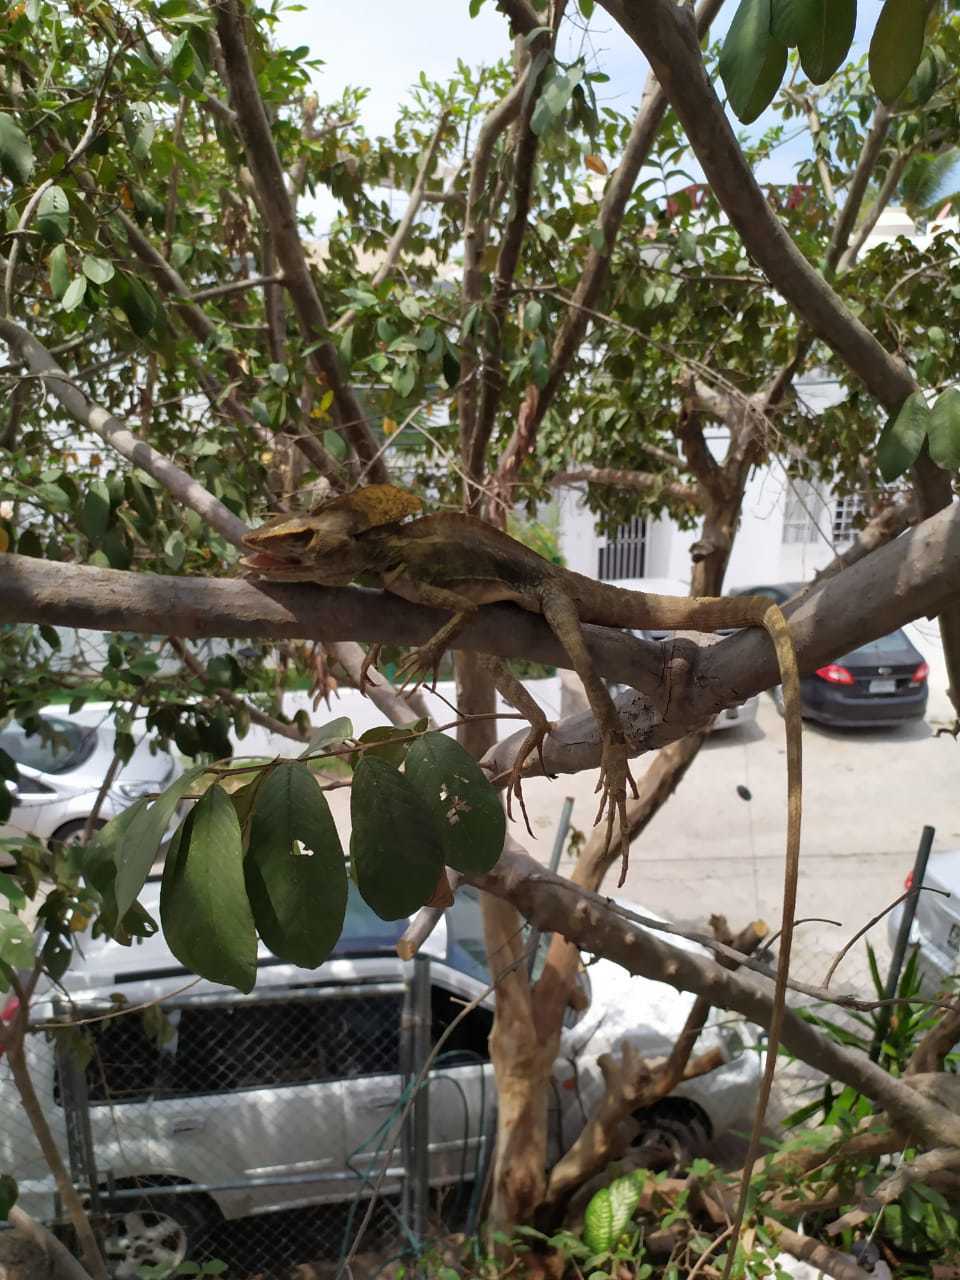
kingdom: Animalia
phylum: Chordata
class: Squamata
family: Corytophanidae
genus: Basiliscus
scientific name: Basiliscus vittatus
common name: Brown basilisk
